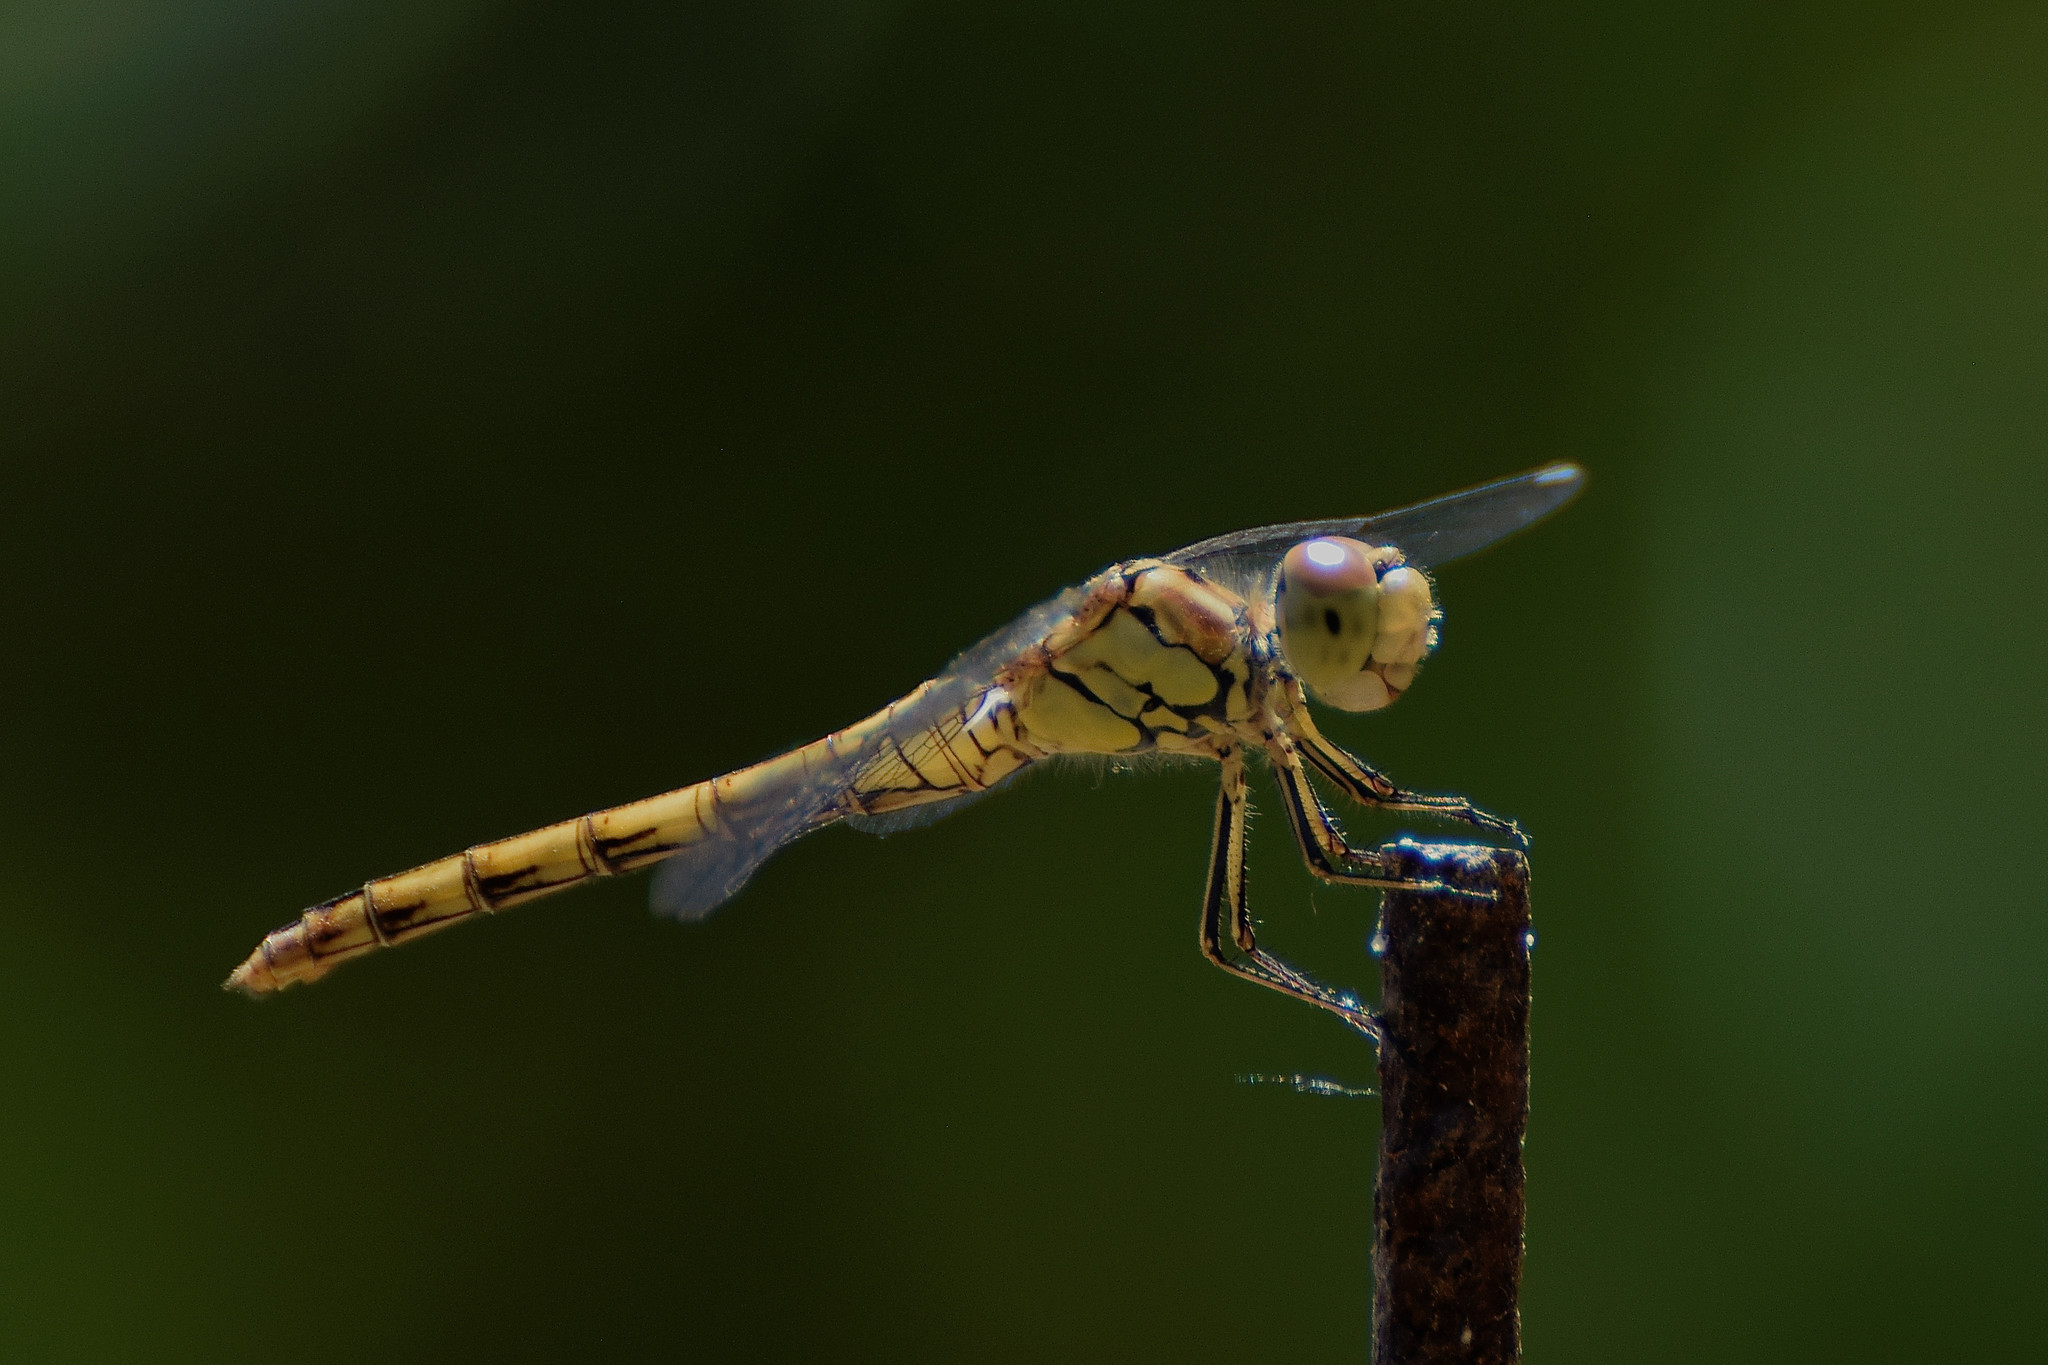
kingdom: Animalia
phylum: Arthropoda
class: Insecta
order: Odonata
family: Libellulidae
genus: Sympetrum
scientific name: Sympetrum striolatum
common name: Common darter
